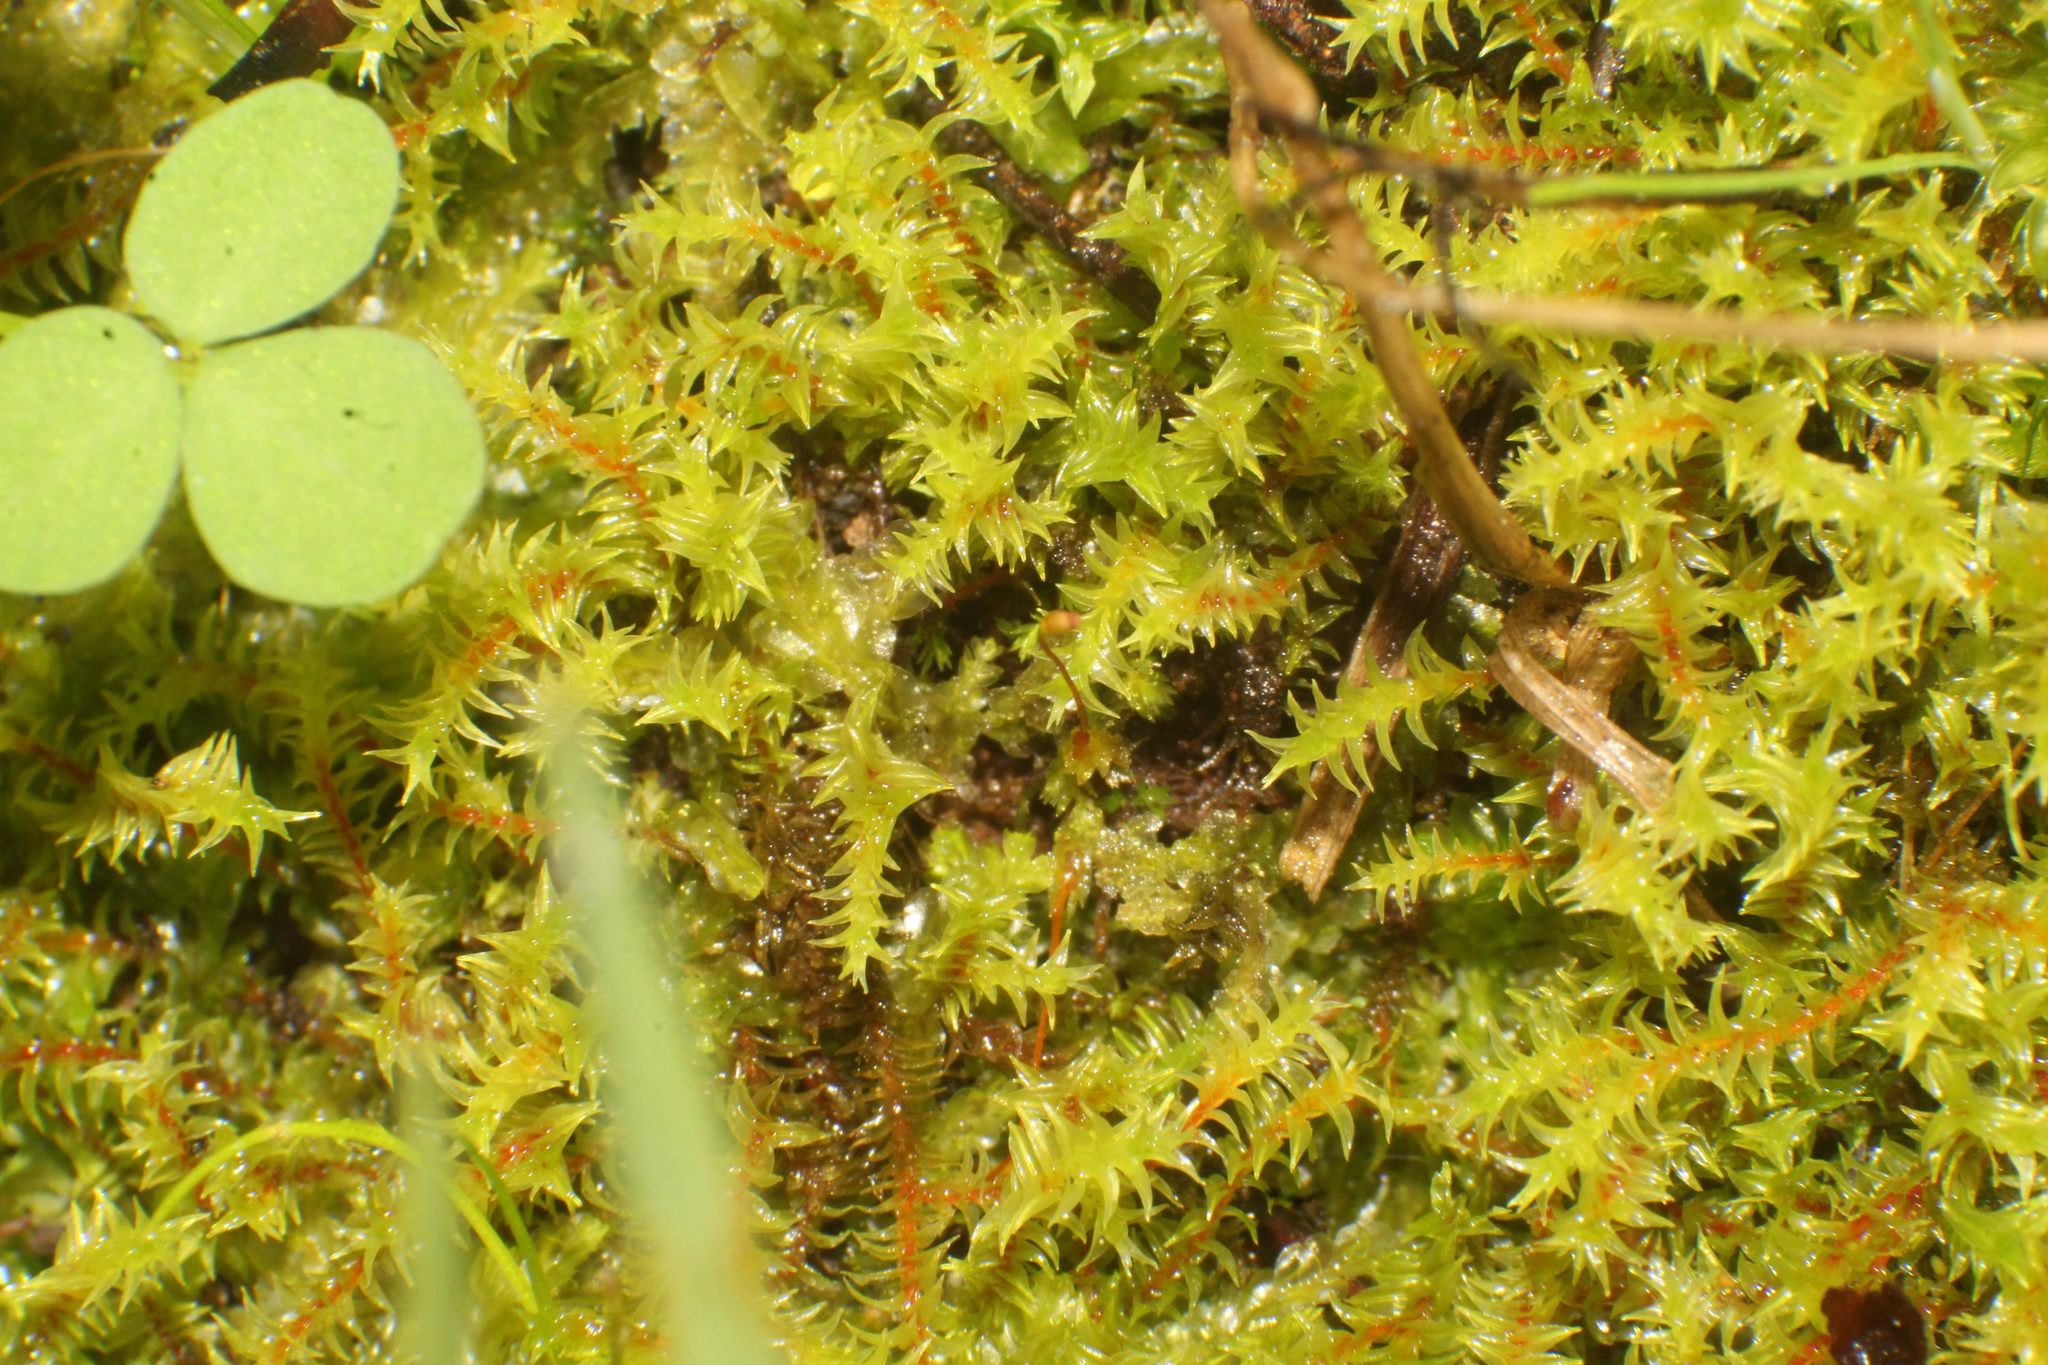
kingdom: Plantae
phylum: Bryophyta
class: Bryopsida
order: Pottiales
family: Pottiaceae
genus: Triquetrella
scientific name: Triquetrella papillata
